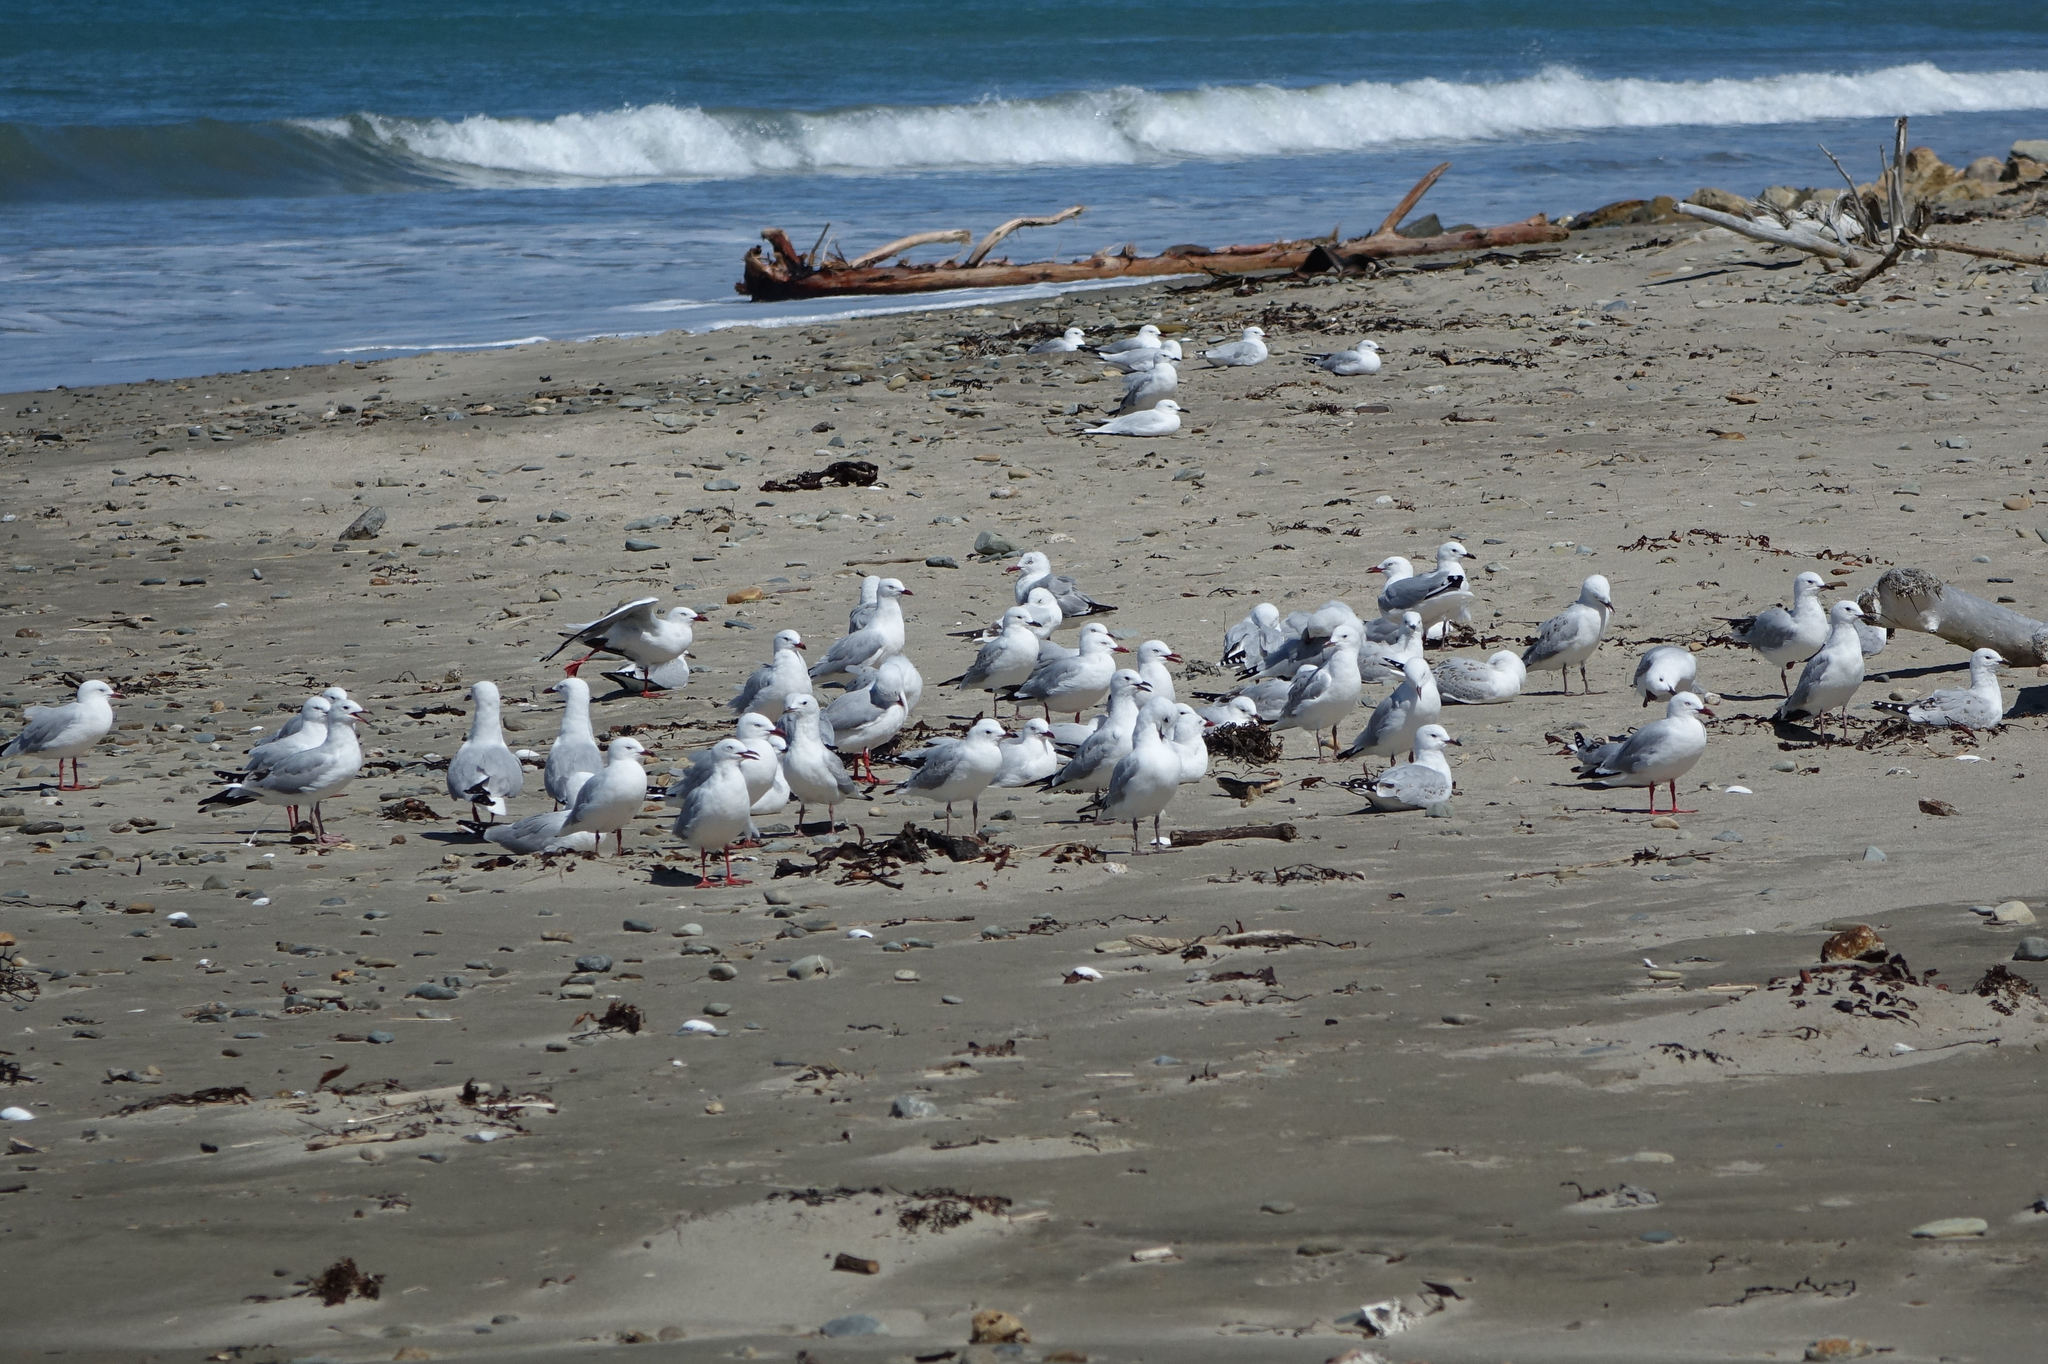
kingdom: Animalia
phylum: Chordata
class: Aves
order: Charadriiformes
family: Laridae
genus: Chroicocephalus
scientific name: Chroicocephalus novaehollandiae
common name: Silver gull
